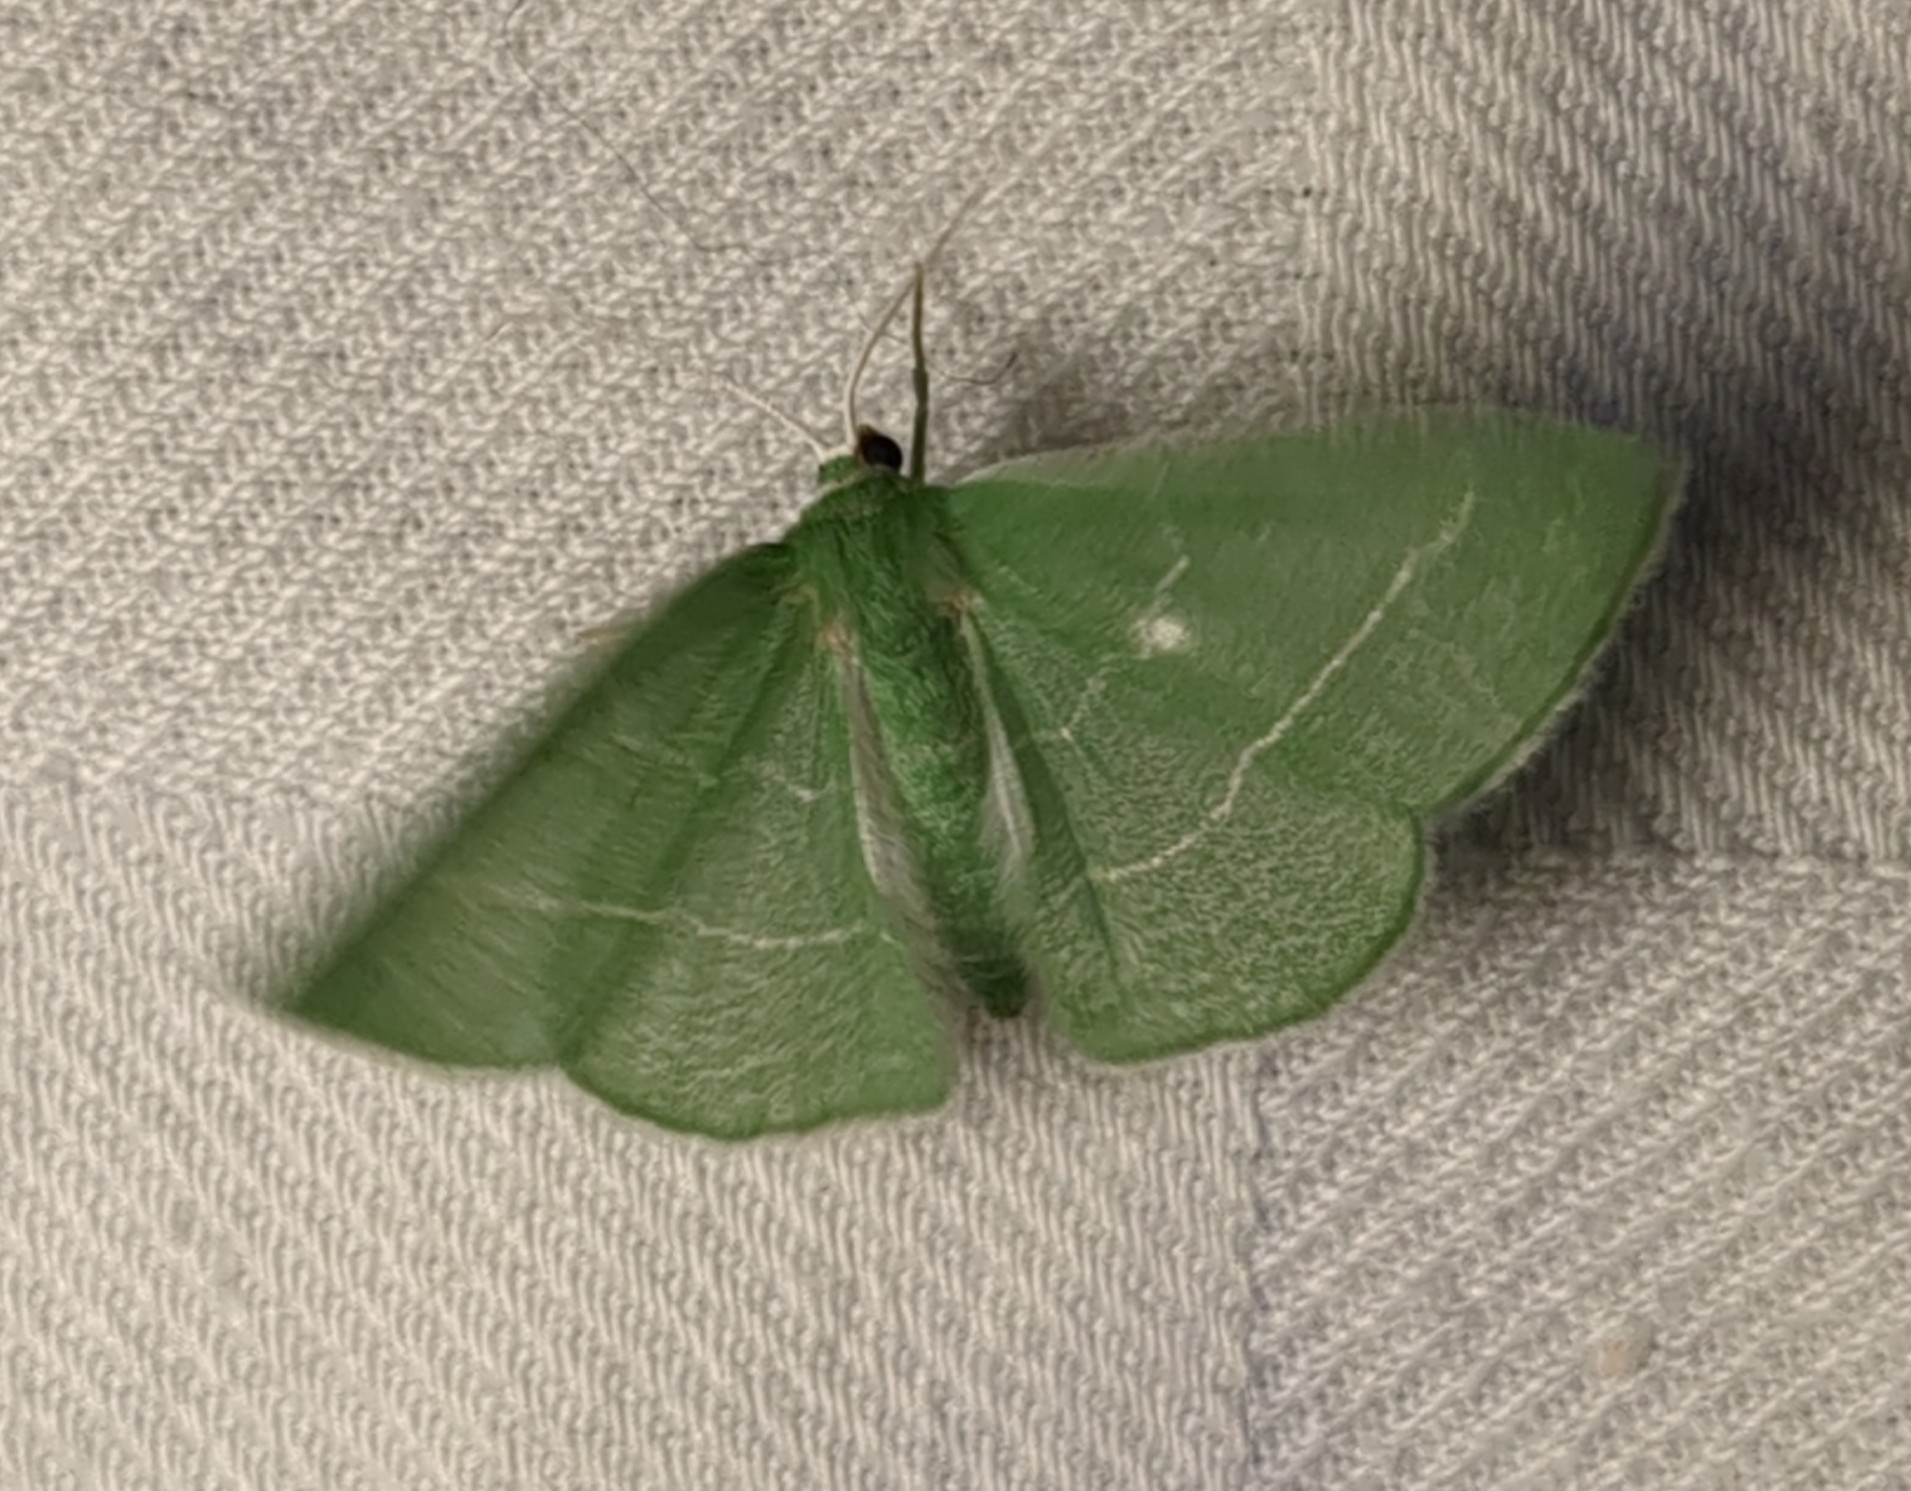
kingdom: Animalia
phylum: Arthropoda
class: Insecta
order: Lepidoptera
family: Geometridae
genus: Nemoria
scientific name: Nemoria zygotaria
